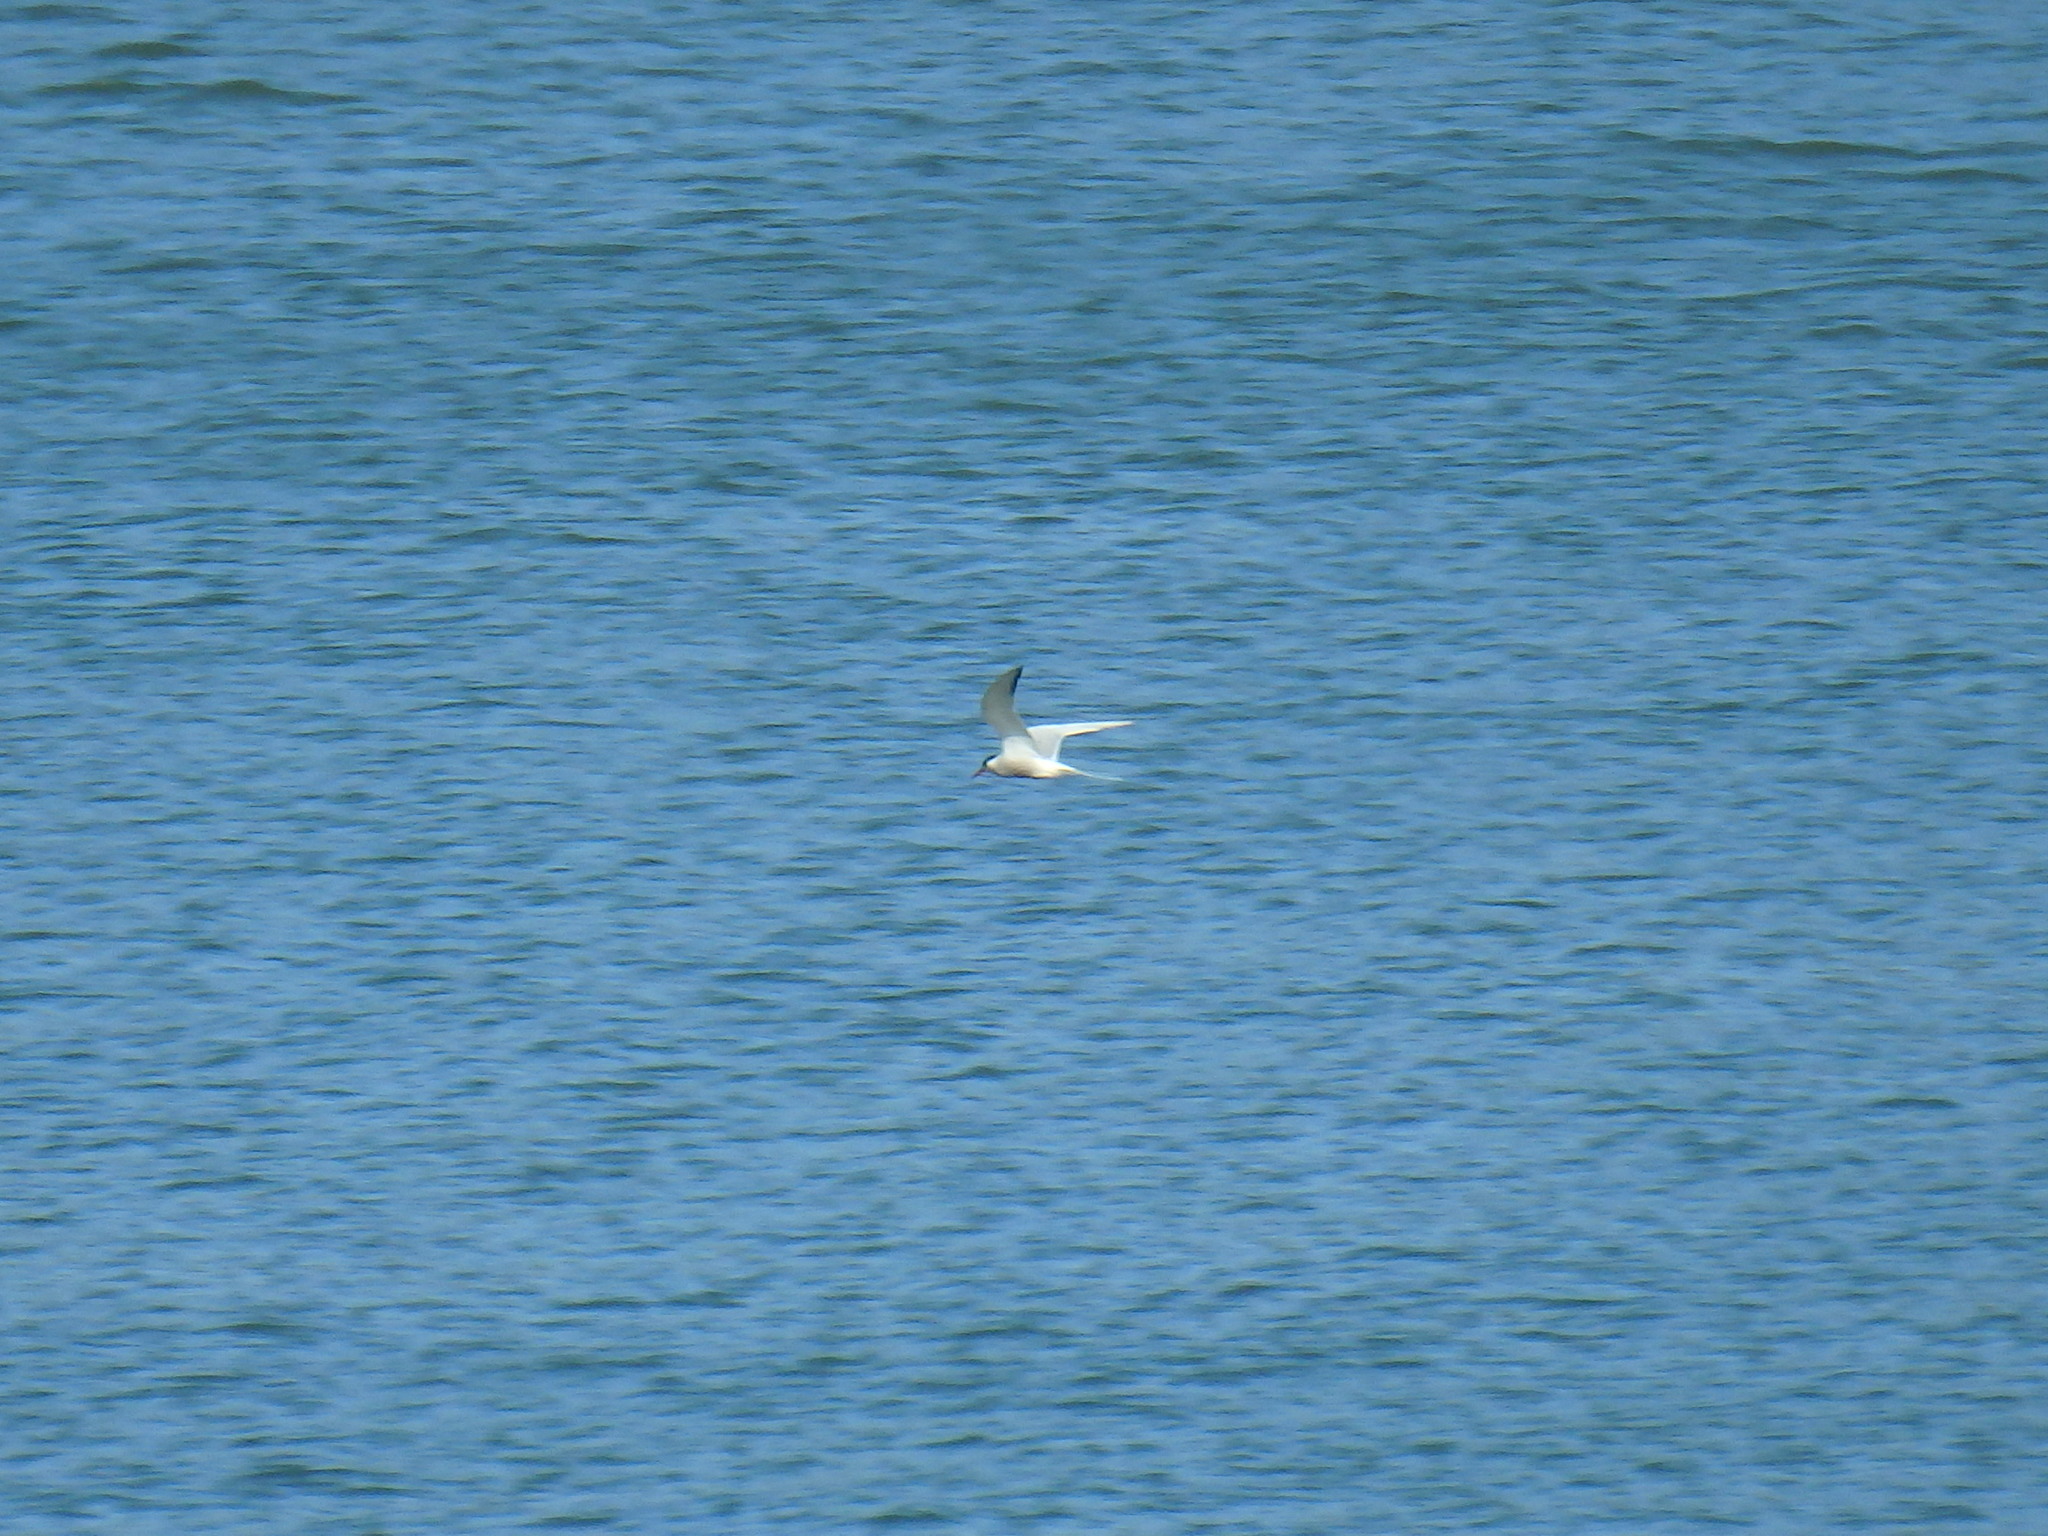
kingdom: Animalia
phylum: Chordata
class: Aves
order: Charadriiformes
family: Laridae
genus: Sterna
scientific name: Sterna hirundo
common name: Common tern
